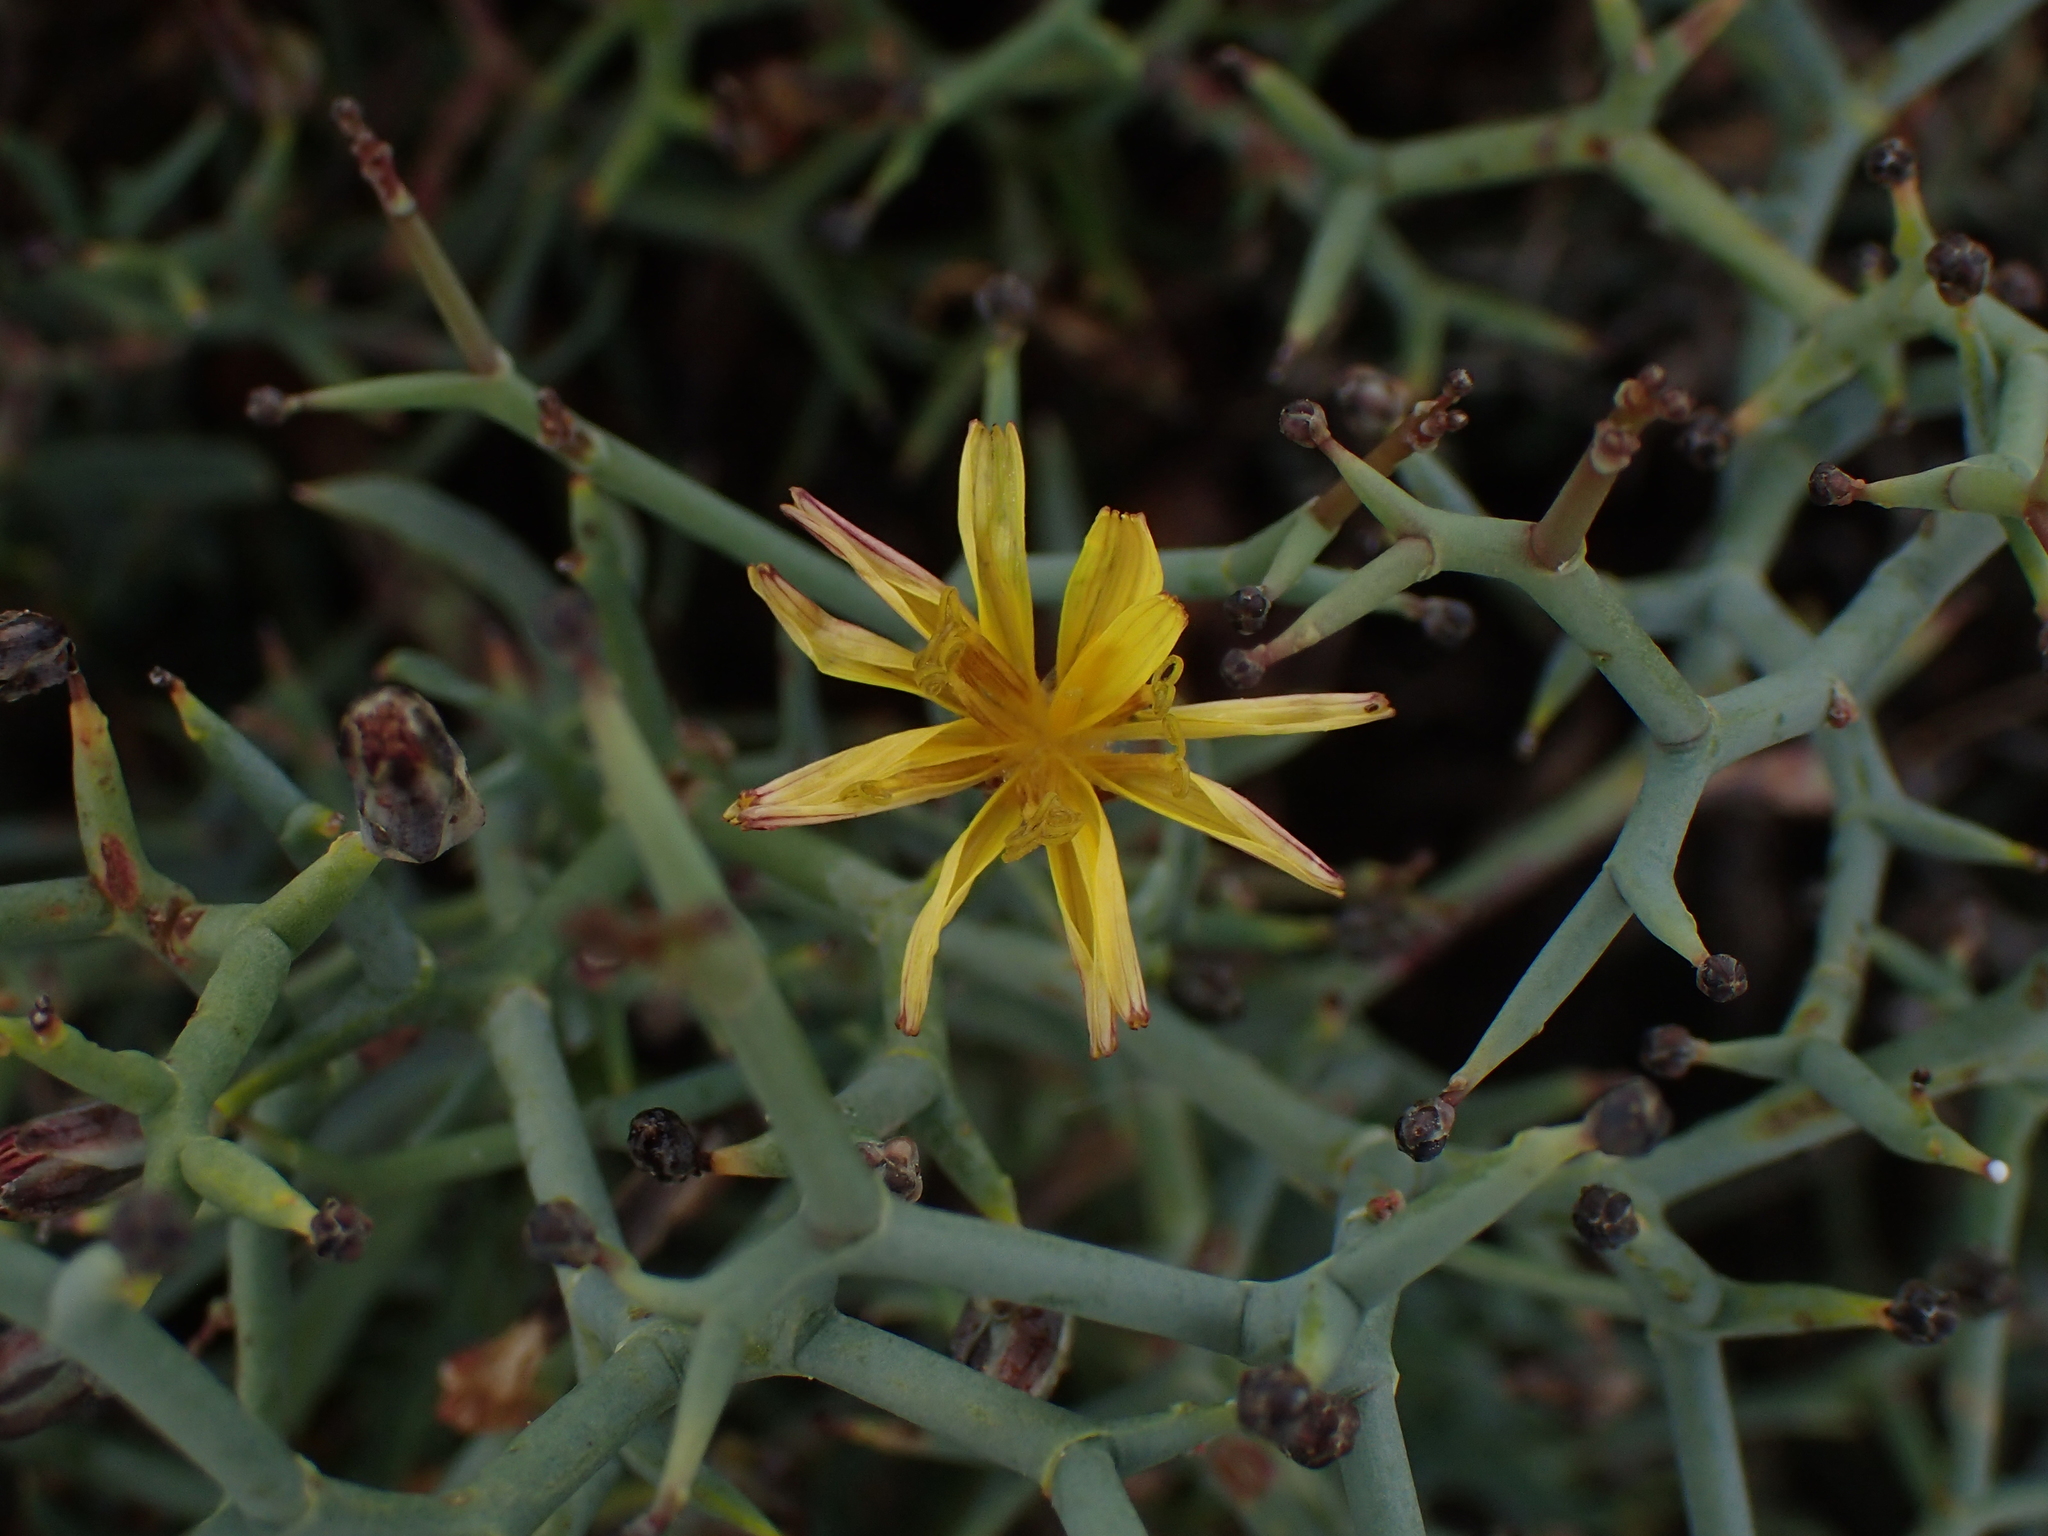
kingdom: Plantae
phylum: Tracheophyta
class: Magnoliopsida
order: Asterales
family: Asteraceae
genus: Launaea
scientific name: Launaea arborescens
